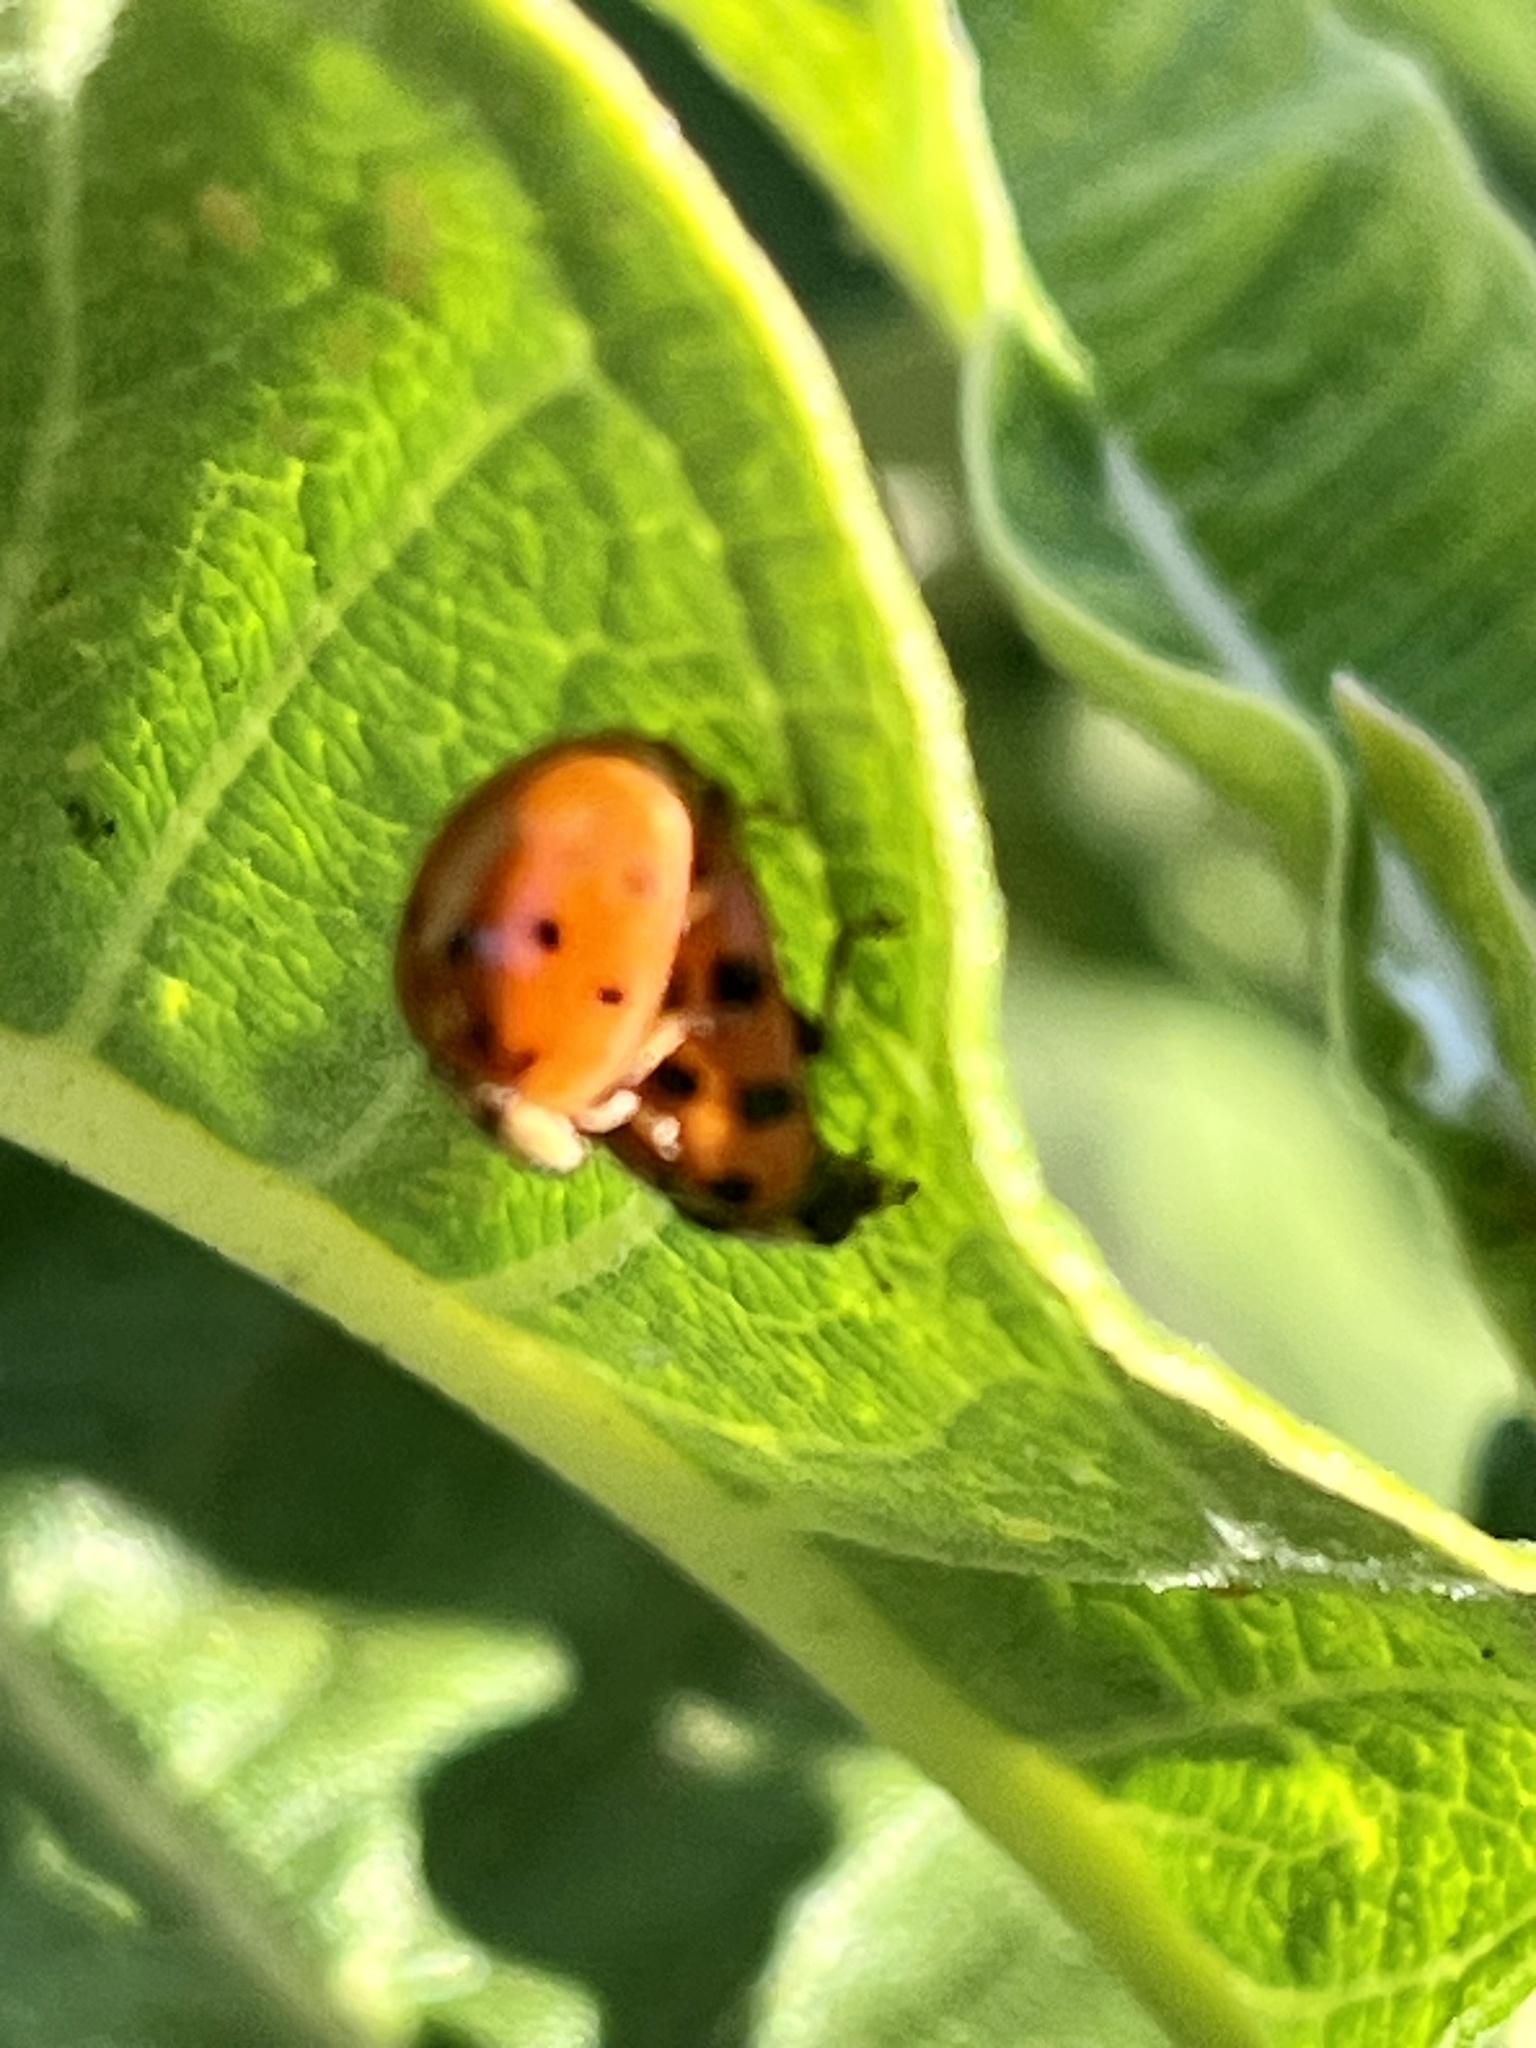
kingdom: Animalia
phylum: Arthropoda
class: Insecta
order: Coleoptera
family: Coccinellidae
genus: Harmonia
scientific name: Harmonia axyridis
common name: Harlequin ladybird
